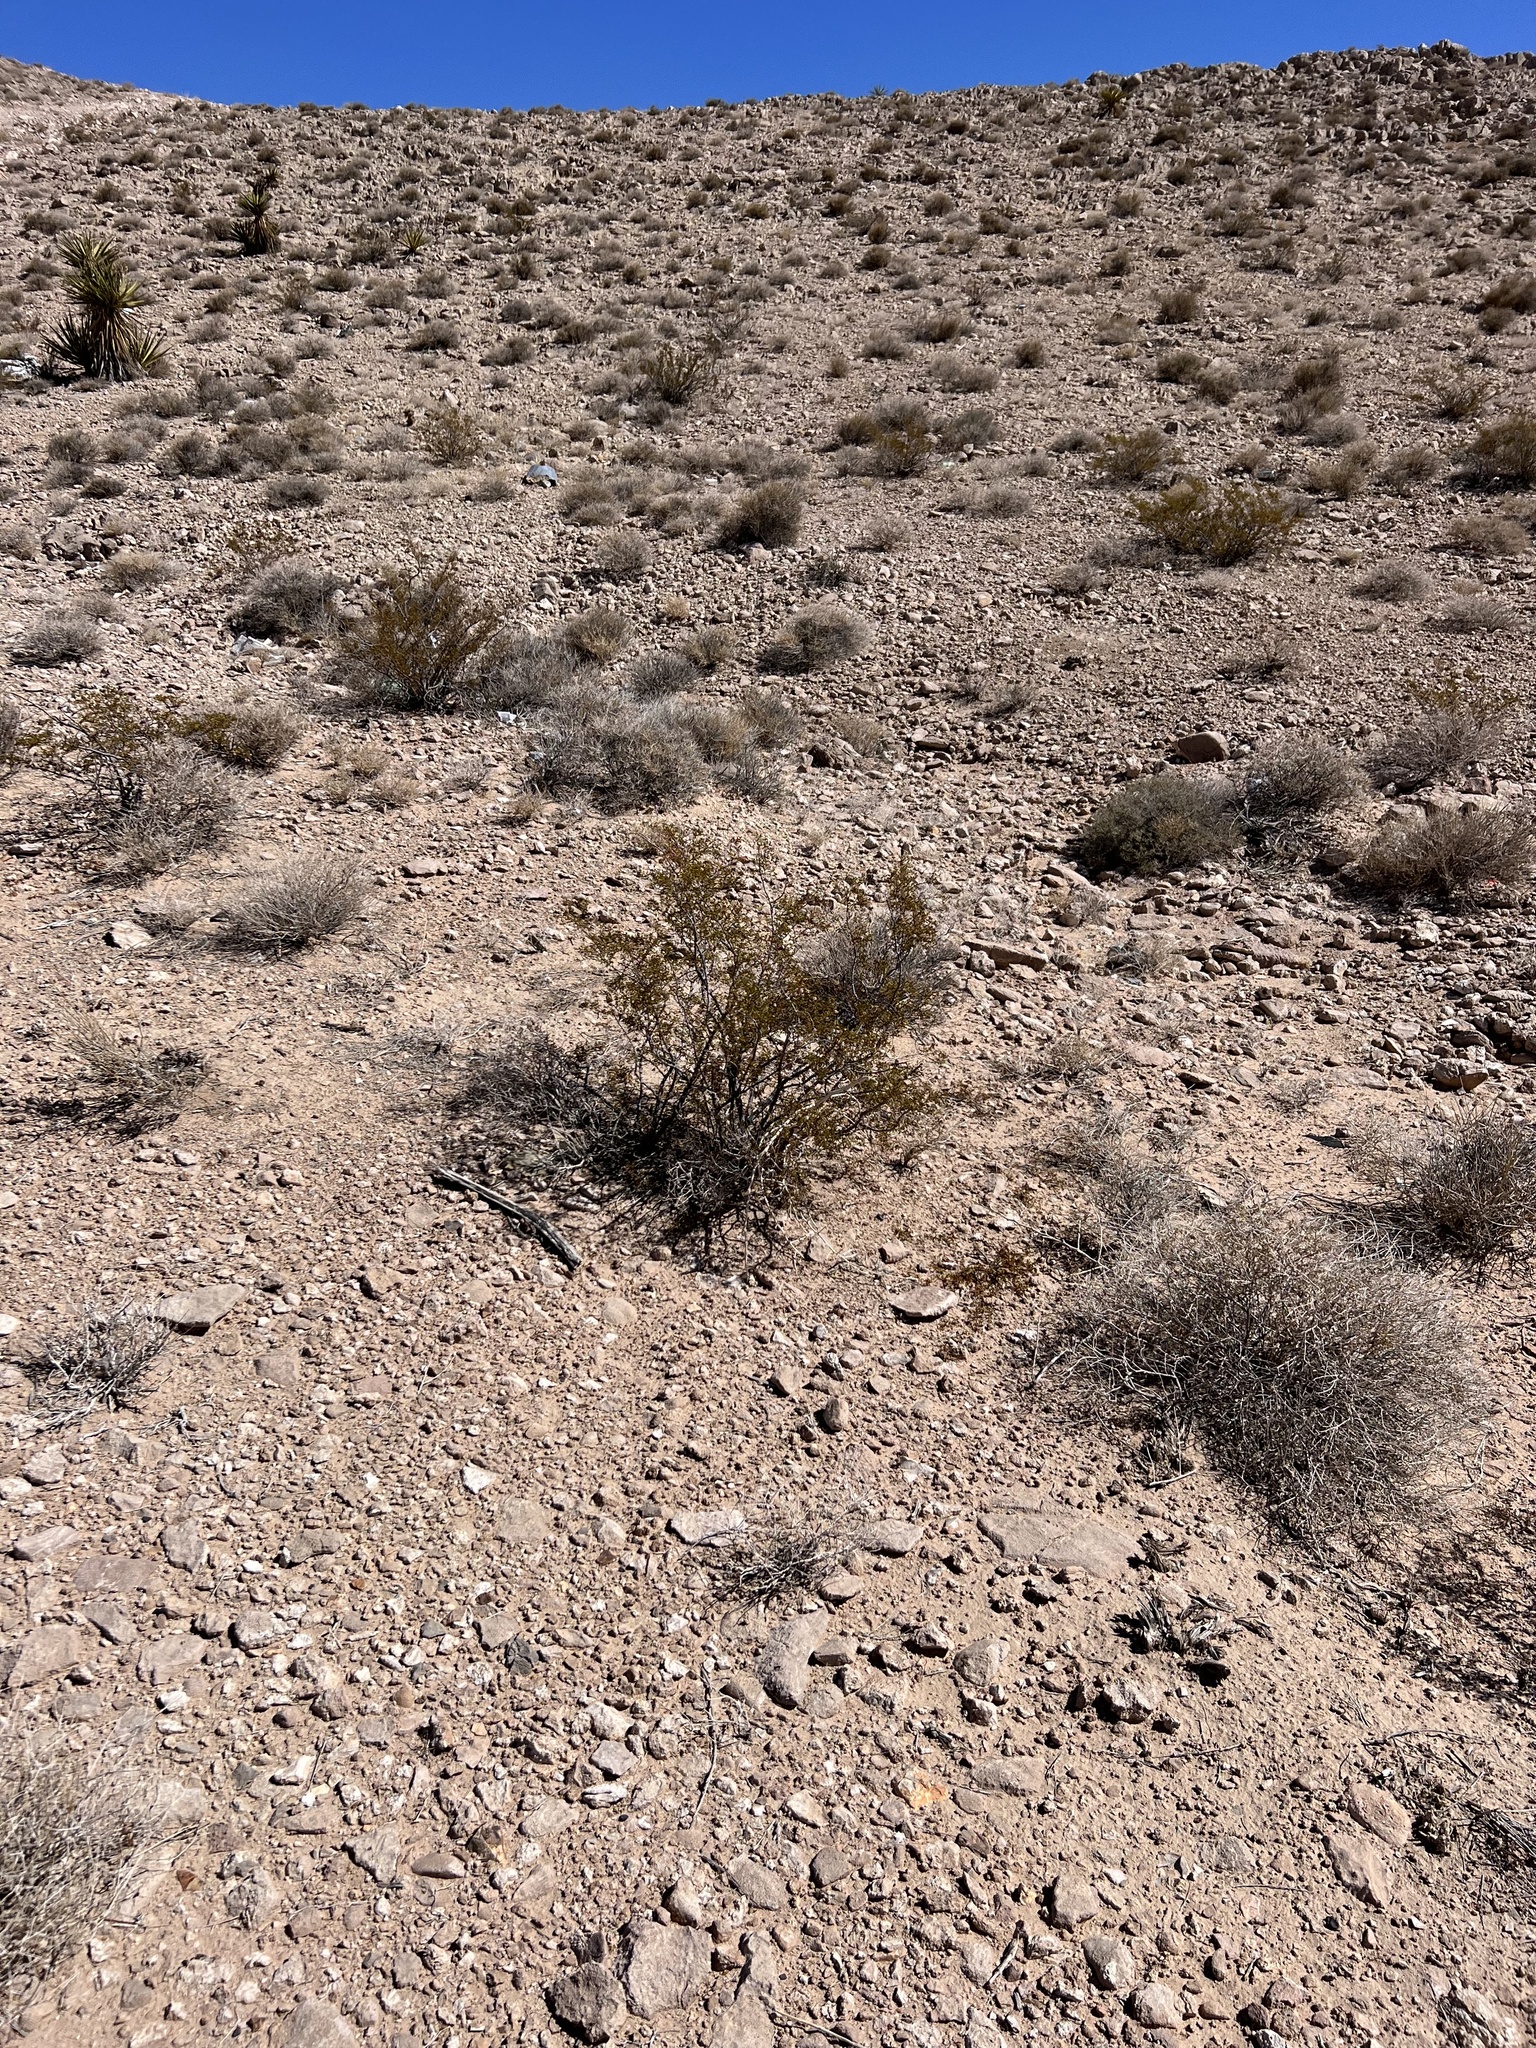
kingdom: Plantae
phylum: Tracheophyta
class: Magnoliopsida
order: Zygophyllales
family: Zygophyllaceae
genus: Larrea
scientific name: Larrea tridentata
